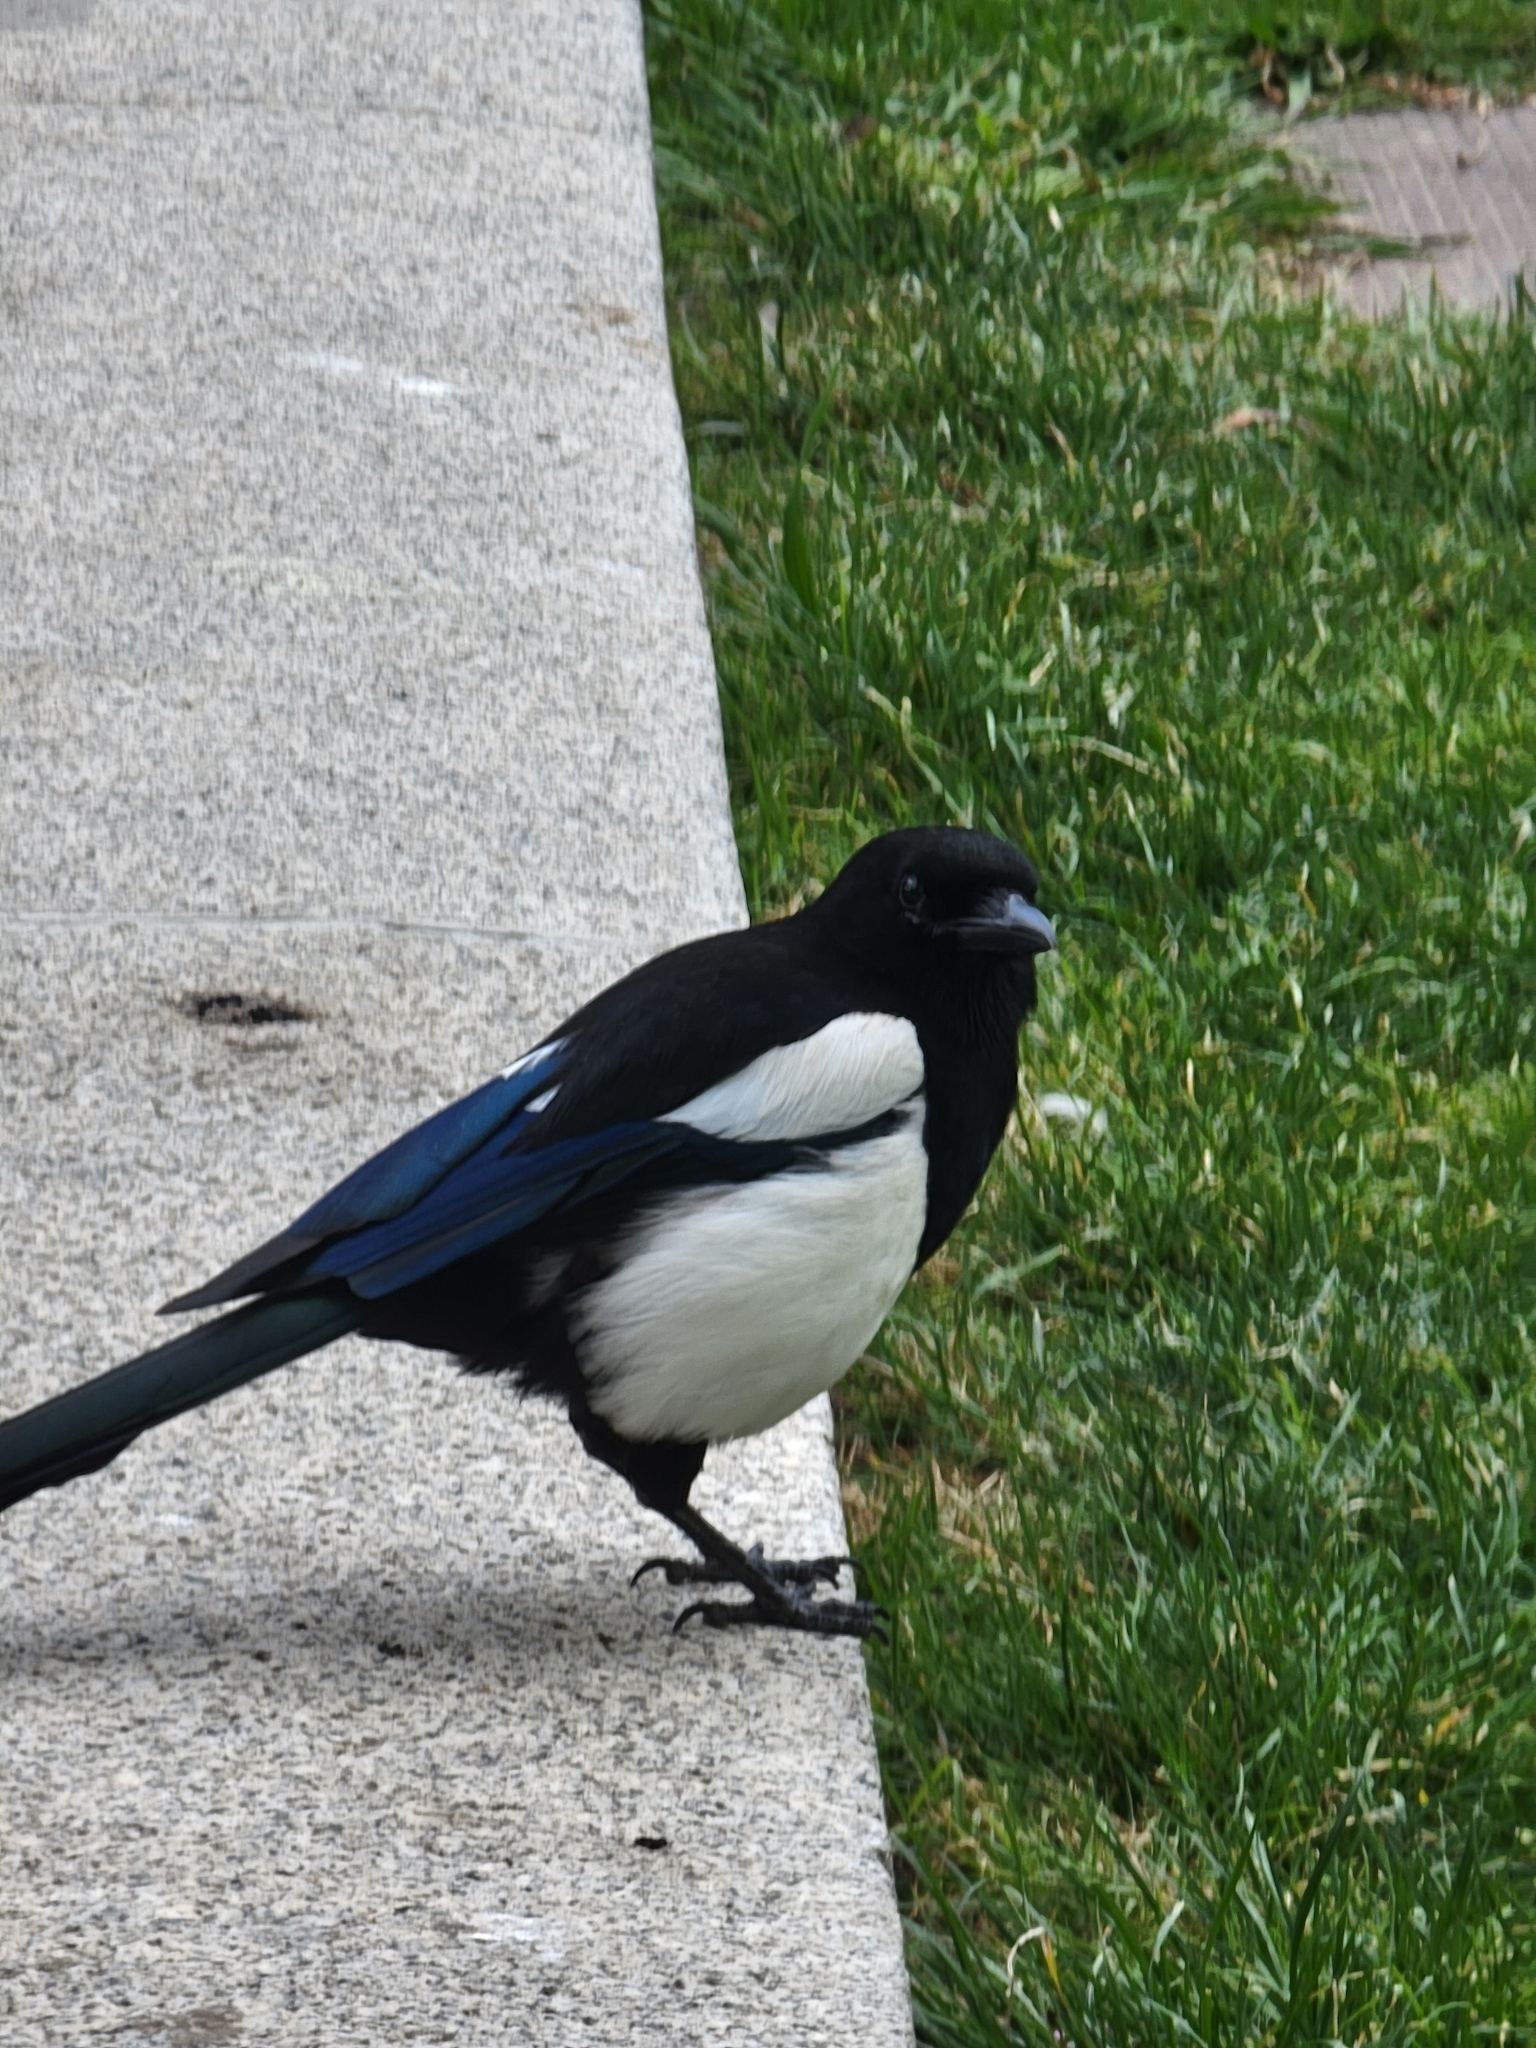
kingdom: Animalia
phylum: Chordata
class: Aves
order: Passeriformes
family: Corvidae
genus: Pica
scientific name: Pica pica
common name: Eurasian magpie
